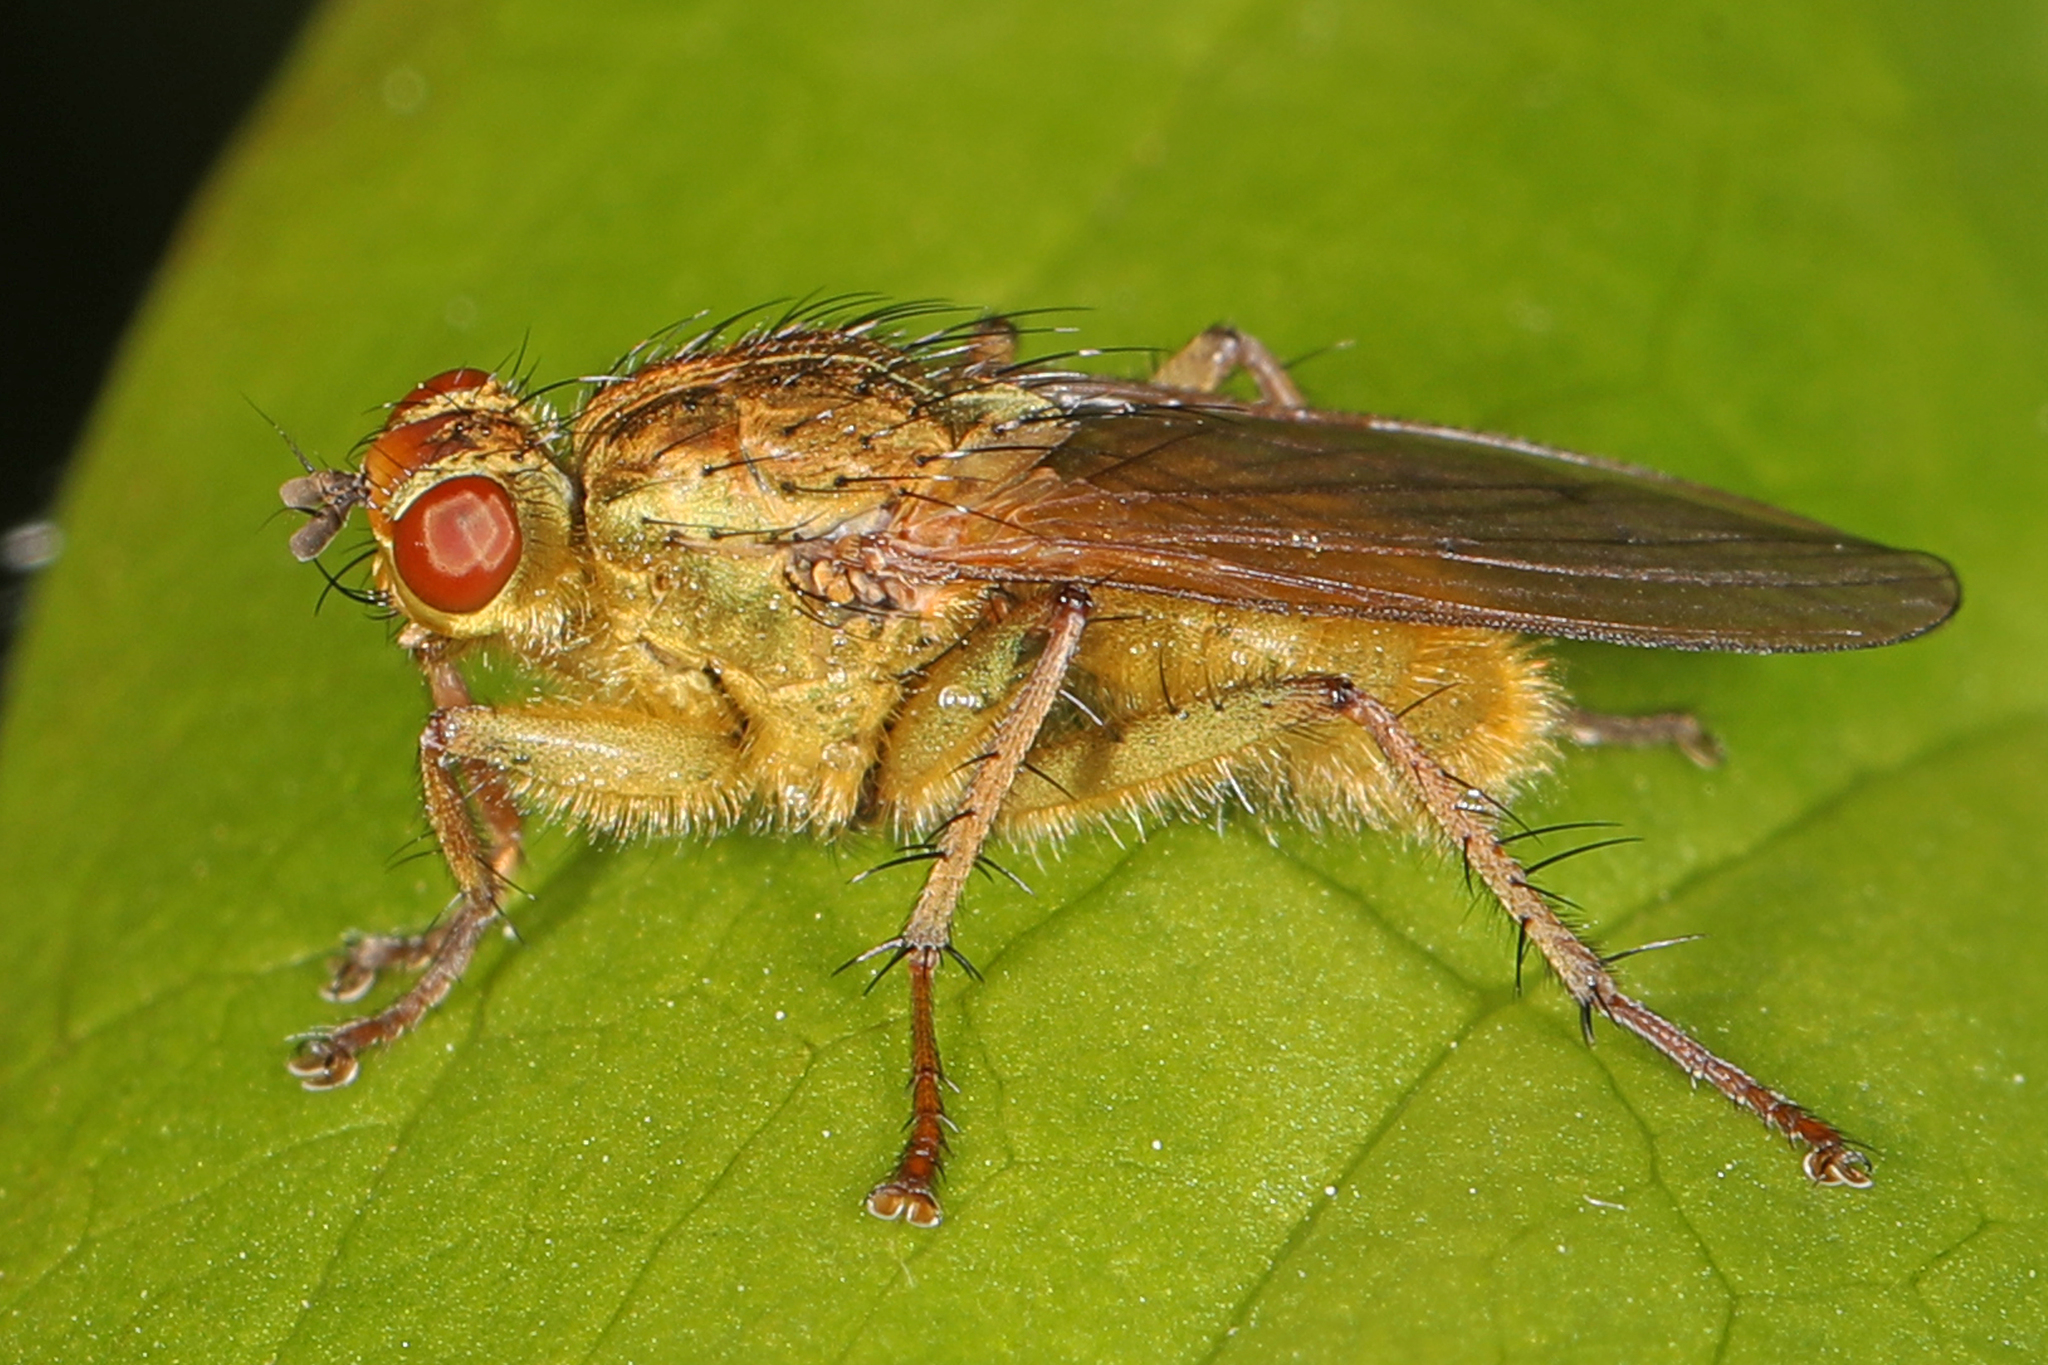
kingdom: Animalia
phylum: Arthropoda
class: Insecta
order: Diptera
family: Scathophagidae
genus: Scathophaga
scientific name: Scathophaga stercoraria
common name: Yellow dung fly
